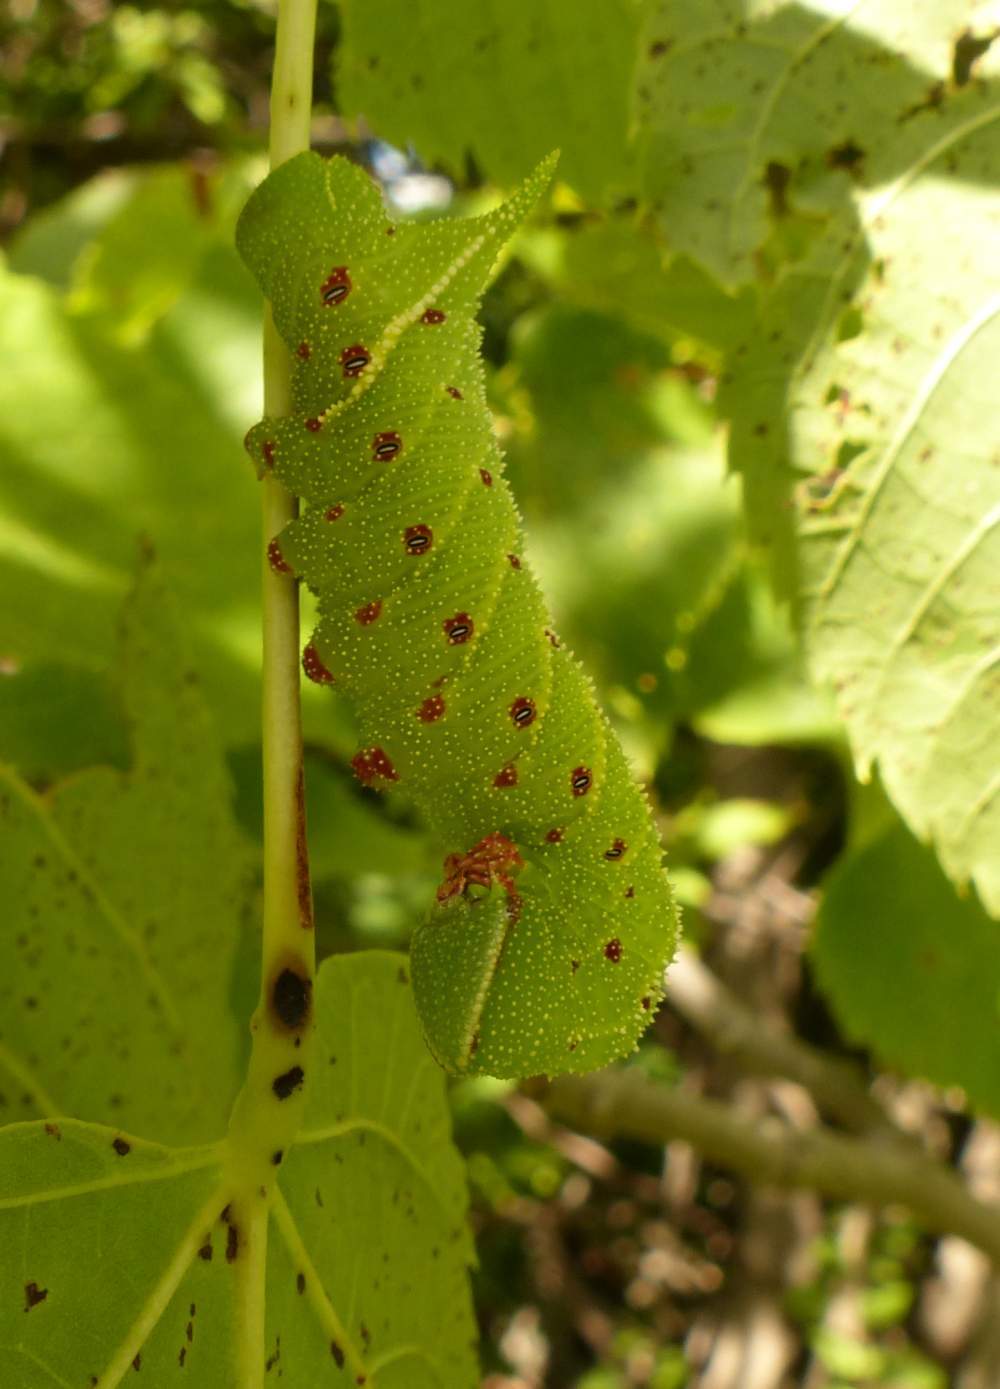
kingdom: Animalia
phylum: Arthropoda
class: Insecta
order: Lepidoptera
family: Sphingidae
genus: Paonias
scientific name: Paonias excaecata
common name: Blind-eyed sphinx
